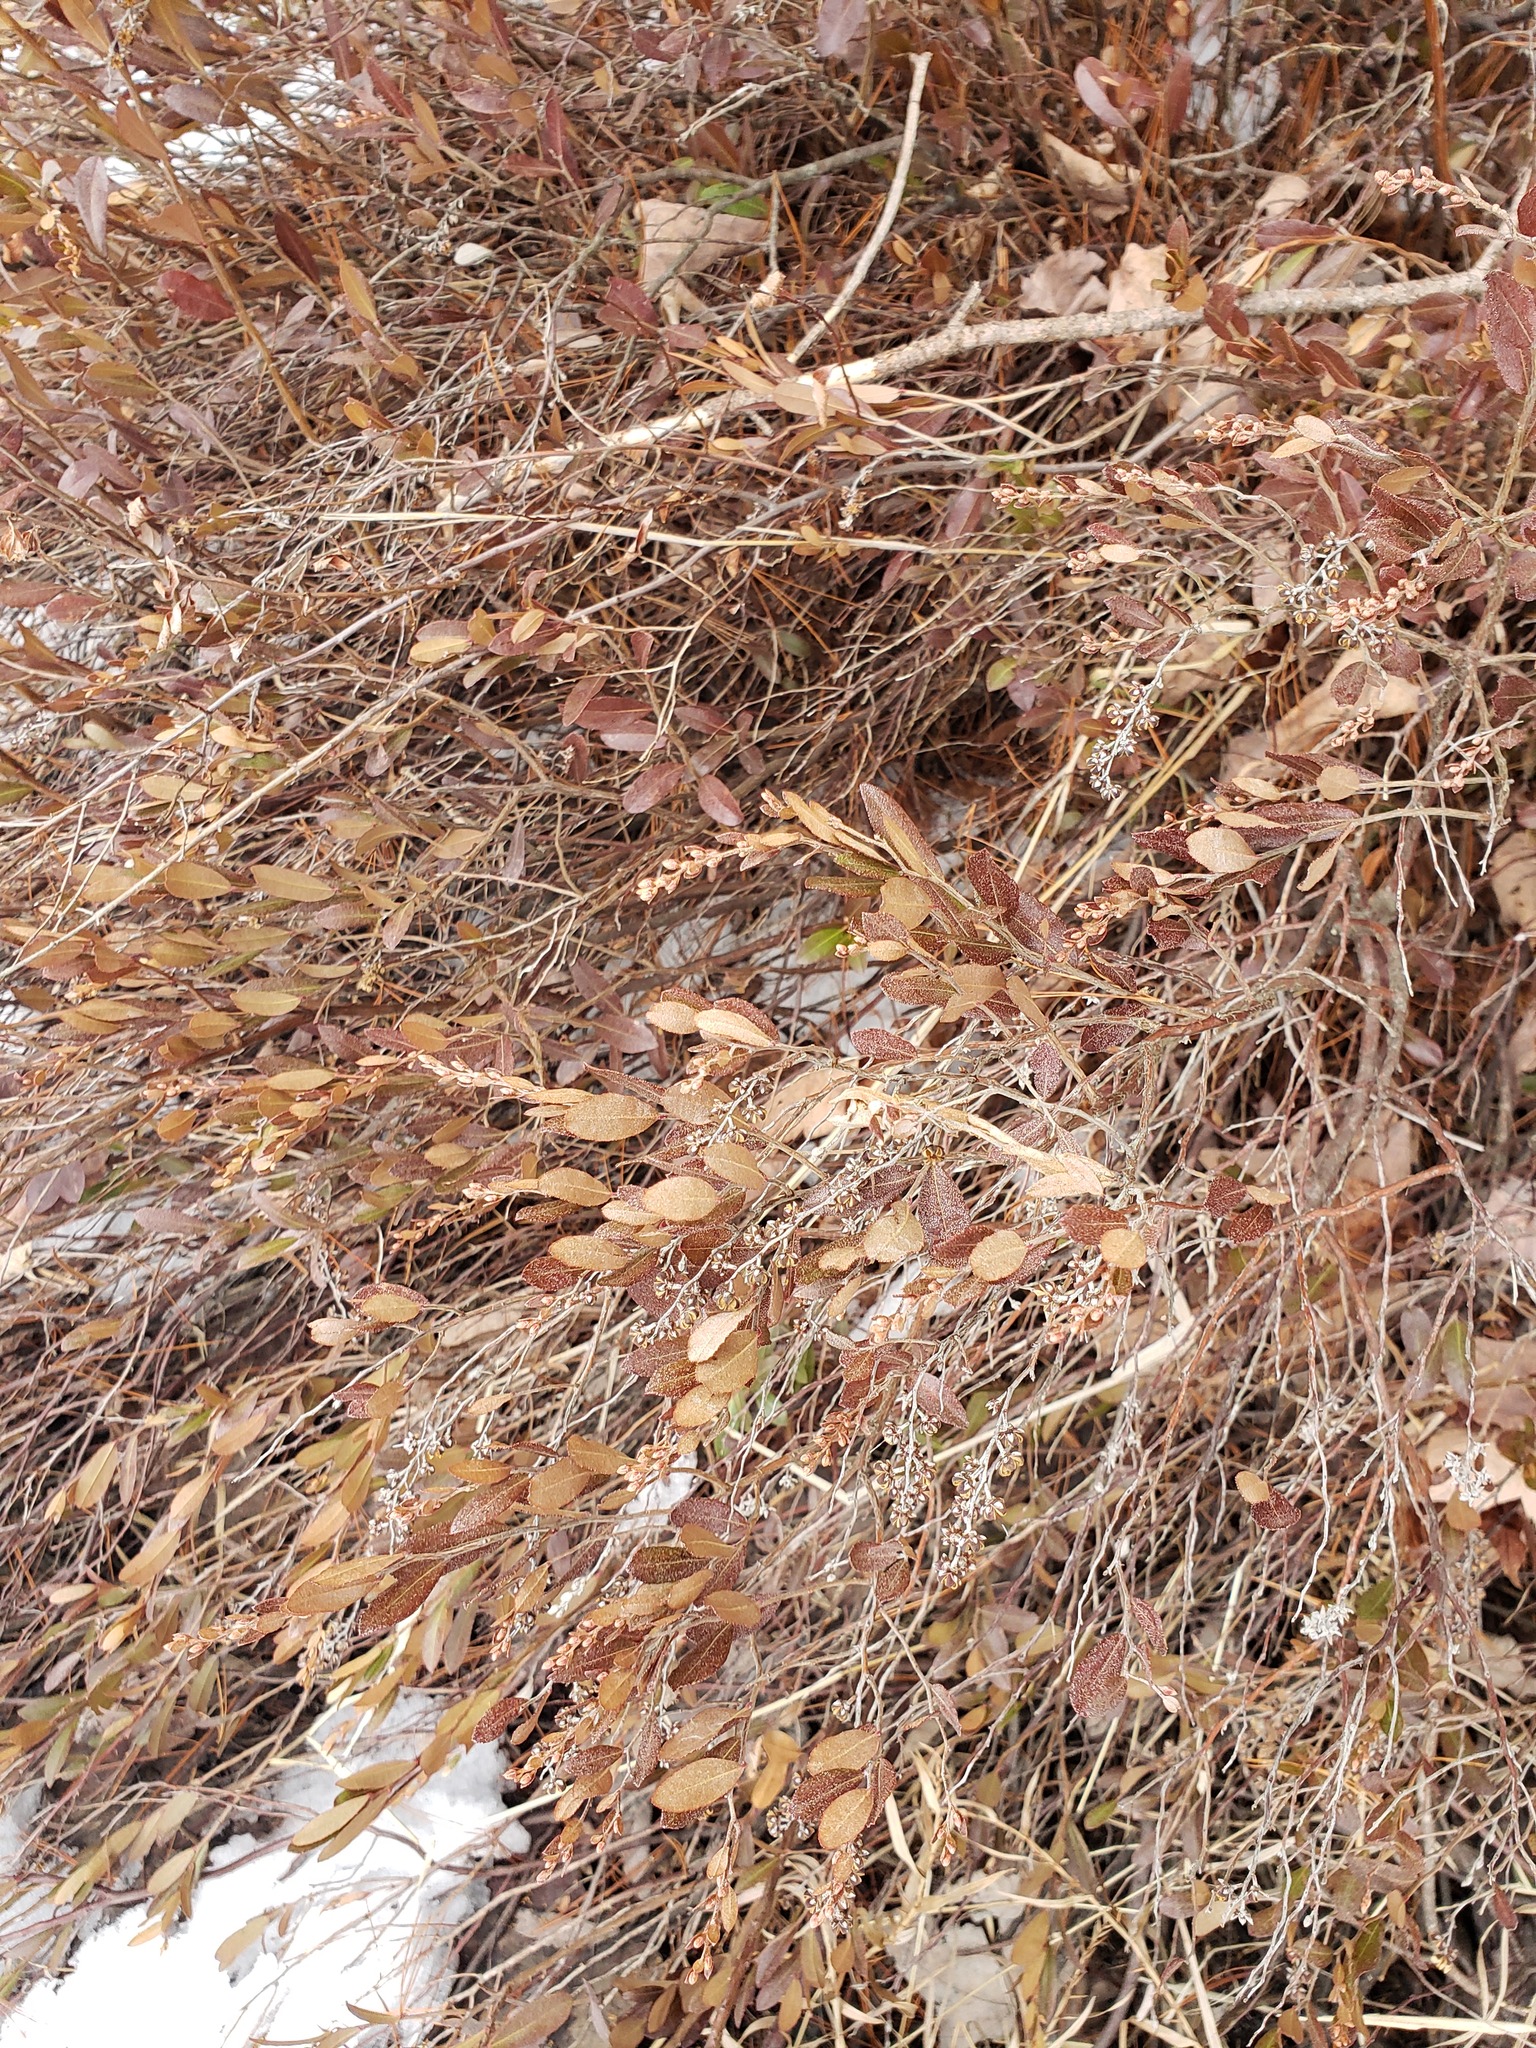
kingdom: Plantae
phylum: Tracheophyta
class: Magnoliopsida
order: Ericales
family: Ericaceae
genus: Chamaedaphne
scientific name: Chamaedaphne calyculata
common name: Leatherleaf
